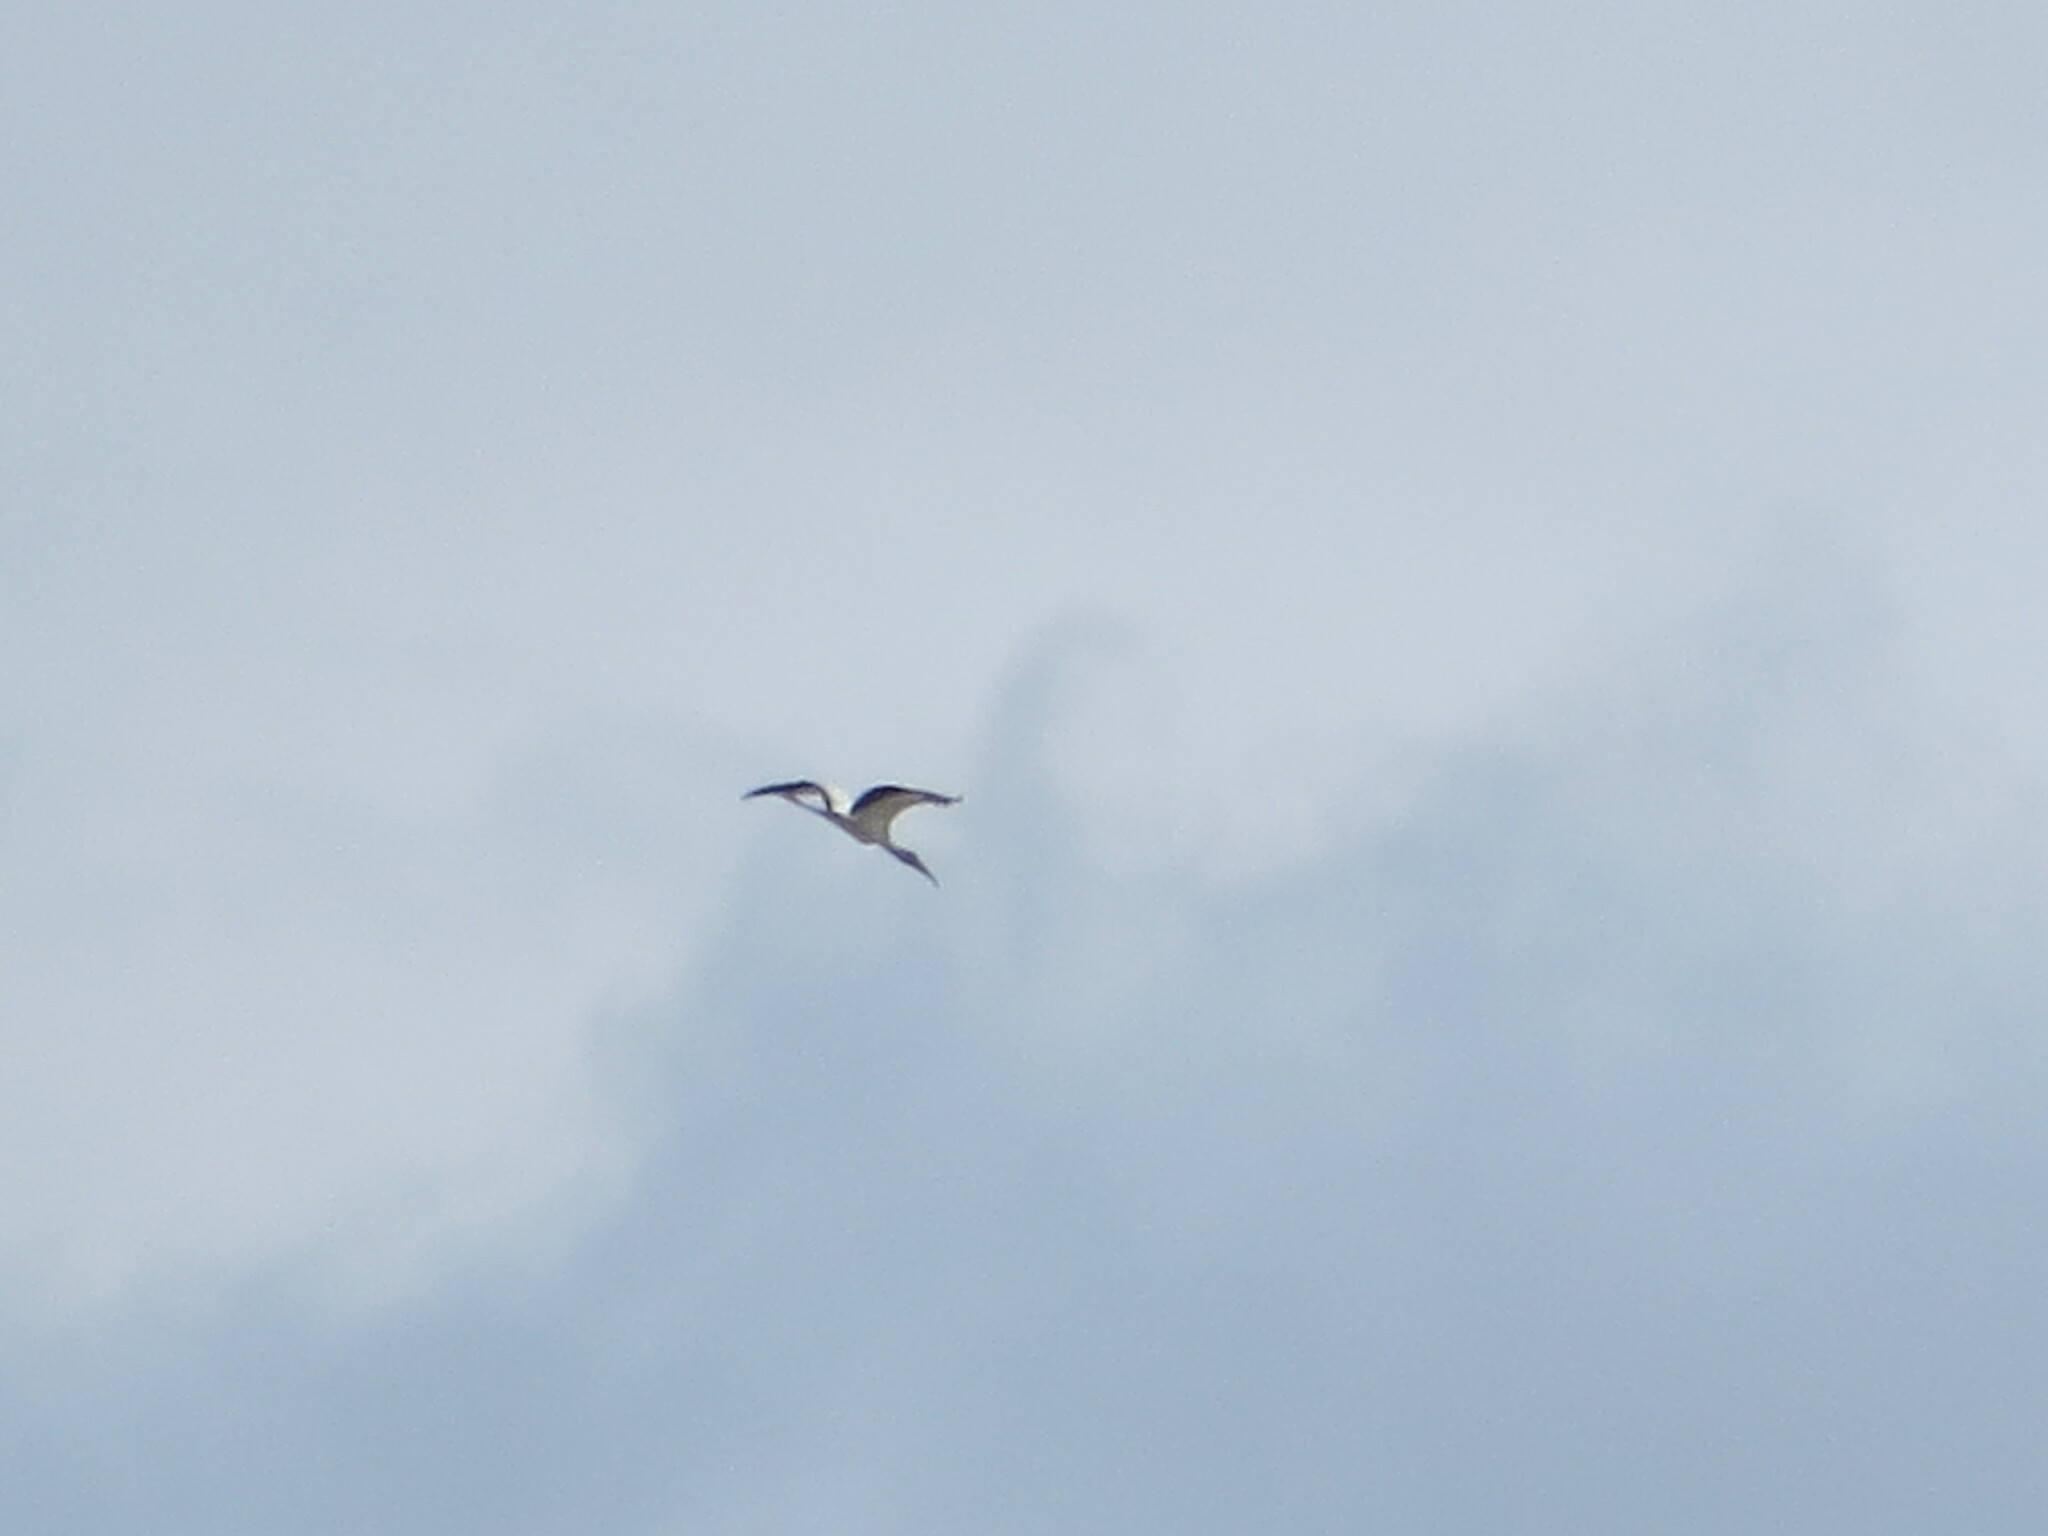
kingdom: Animalia
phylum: Chordata
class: Aves
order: Ciconiiformes
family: Ciconiidae
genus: Mycteria
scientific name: Mycteria americana
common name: Wood stork
